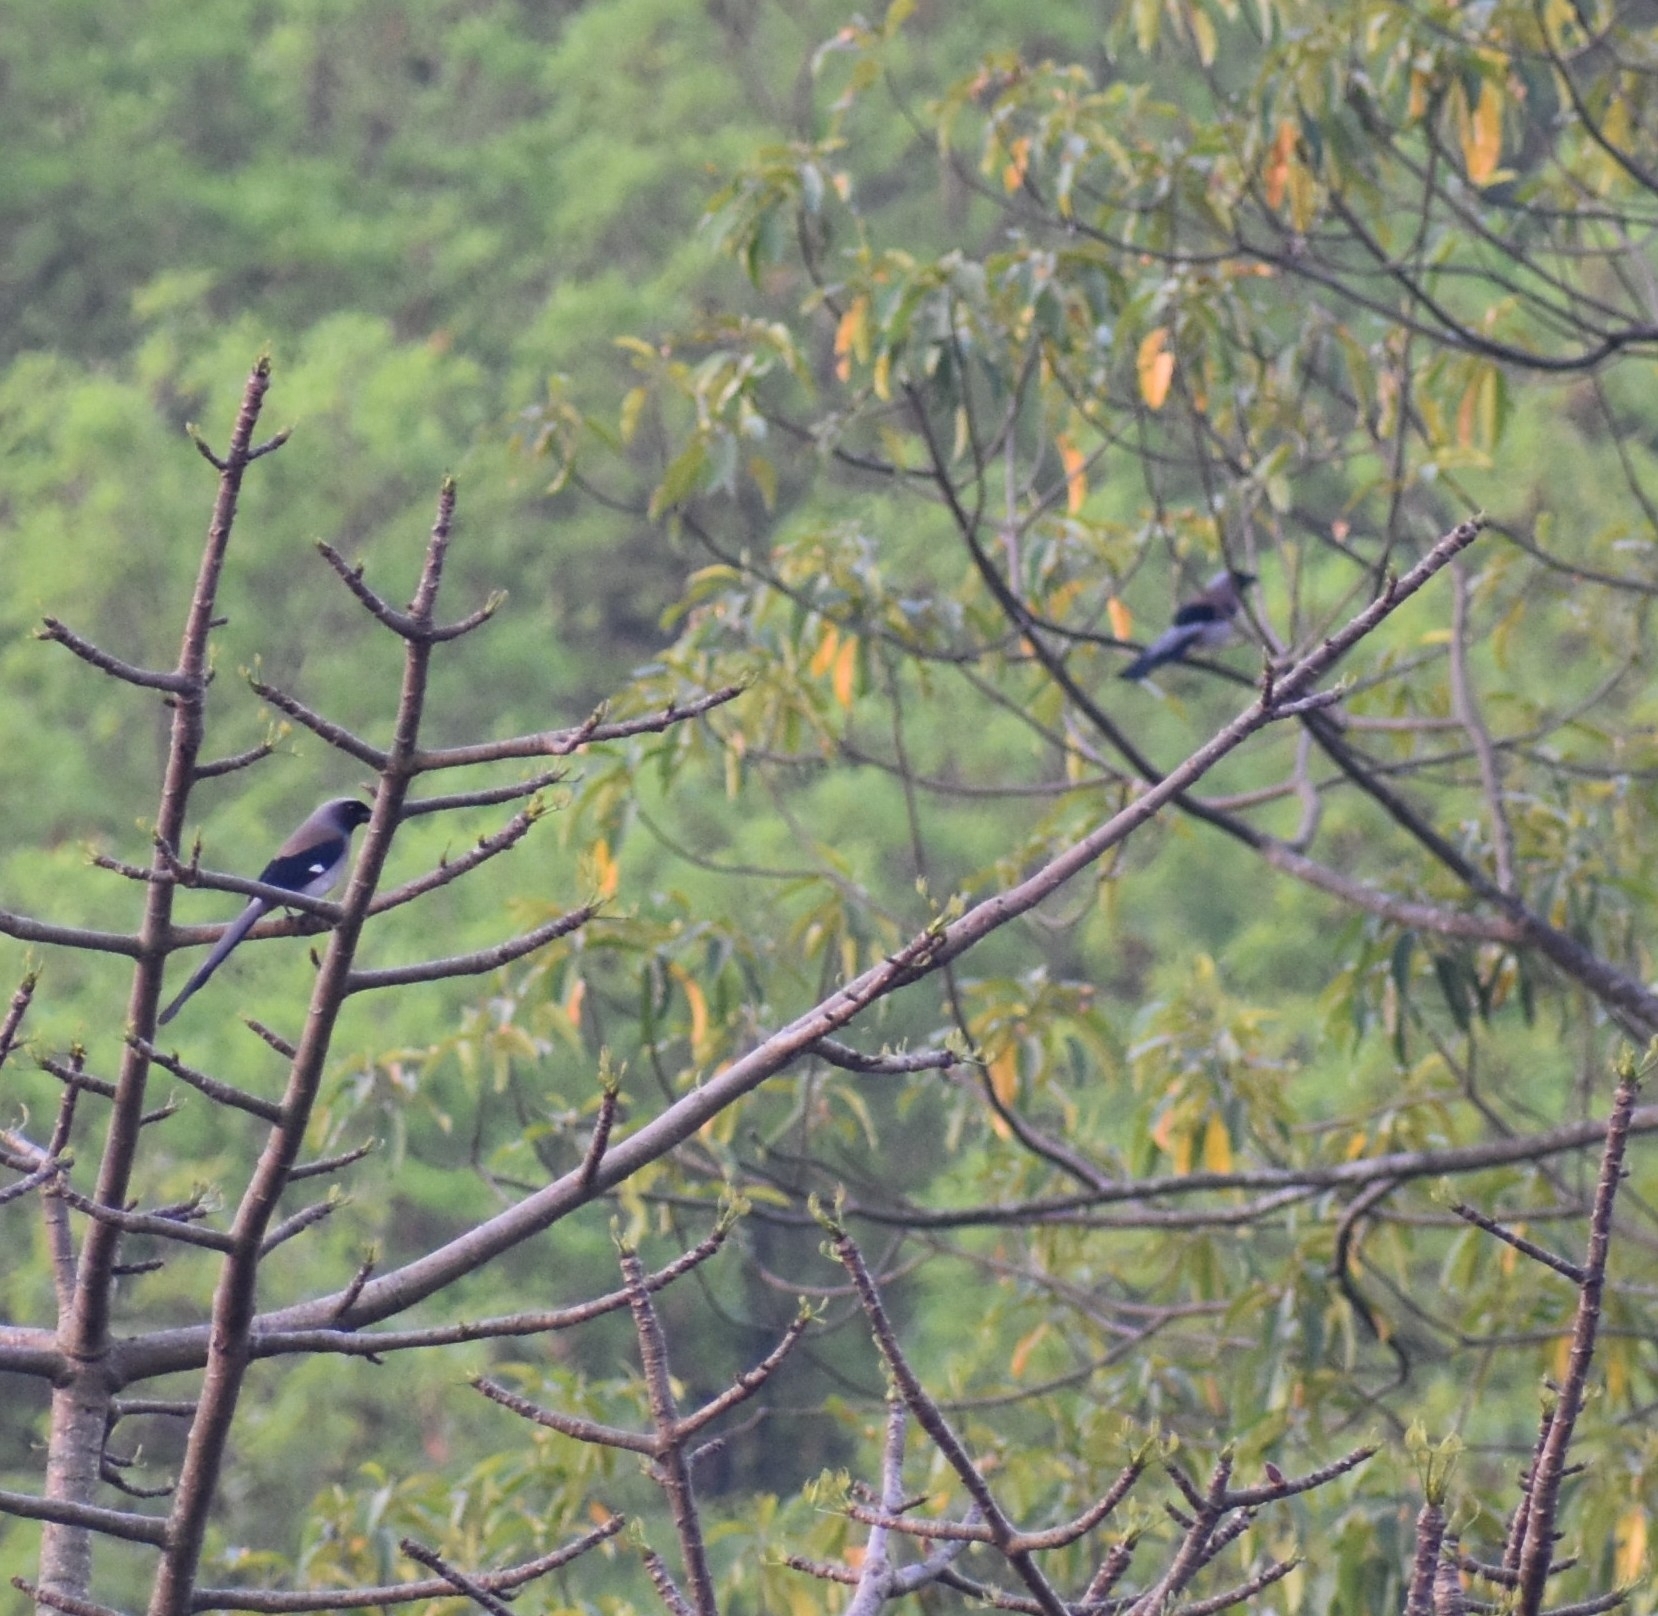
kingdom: Animalia
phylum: Chordata
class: Aves
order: Passeriformes
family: Corvidae
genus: Dendrocitta
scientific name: Dendrocitta formosae
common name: Grey treepie
